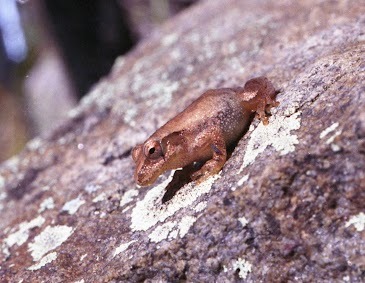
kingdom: Animalia
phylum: Chordata
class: Amphibia
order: Anura
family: Hylidae
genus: Pseudacris
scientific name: Pseudacris crucifer
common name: Spring peeper
